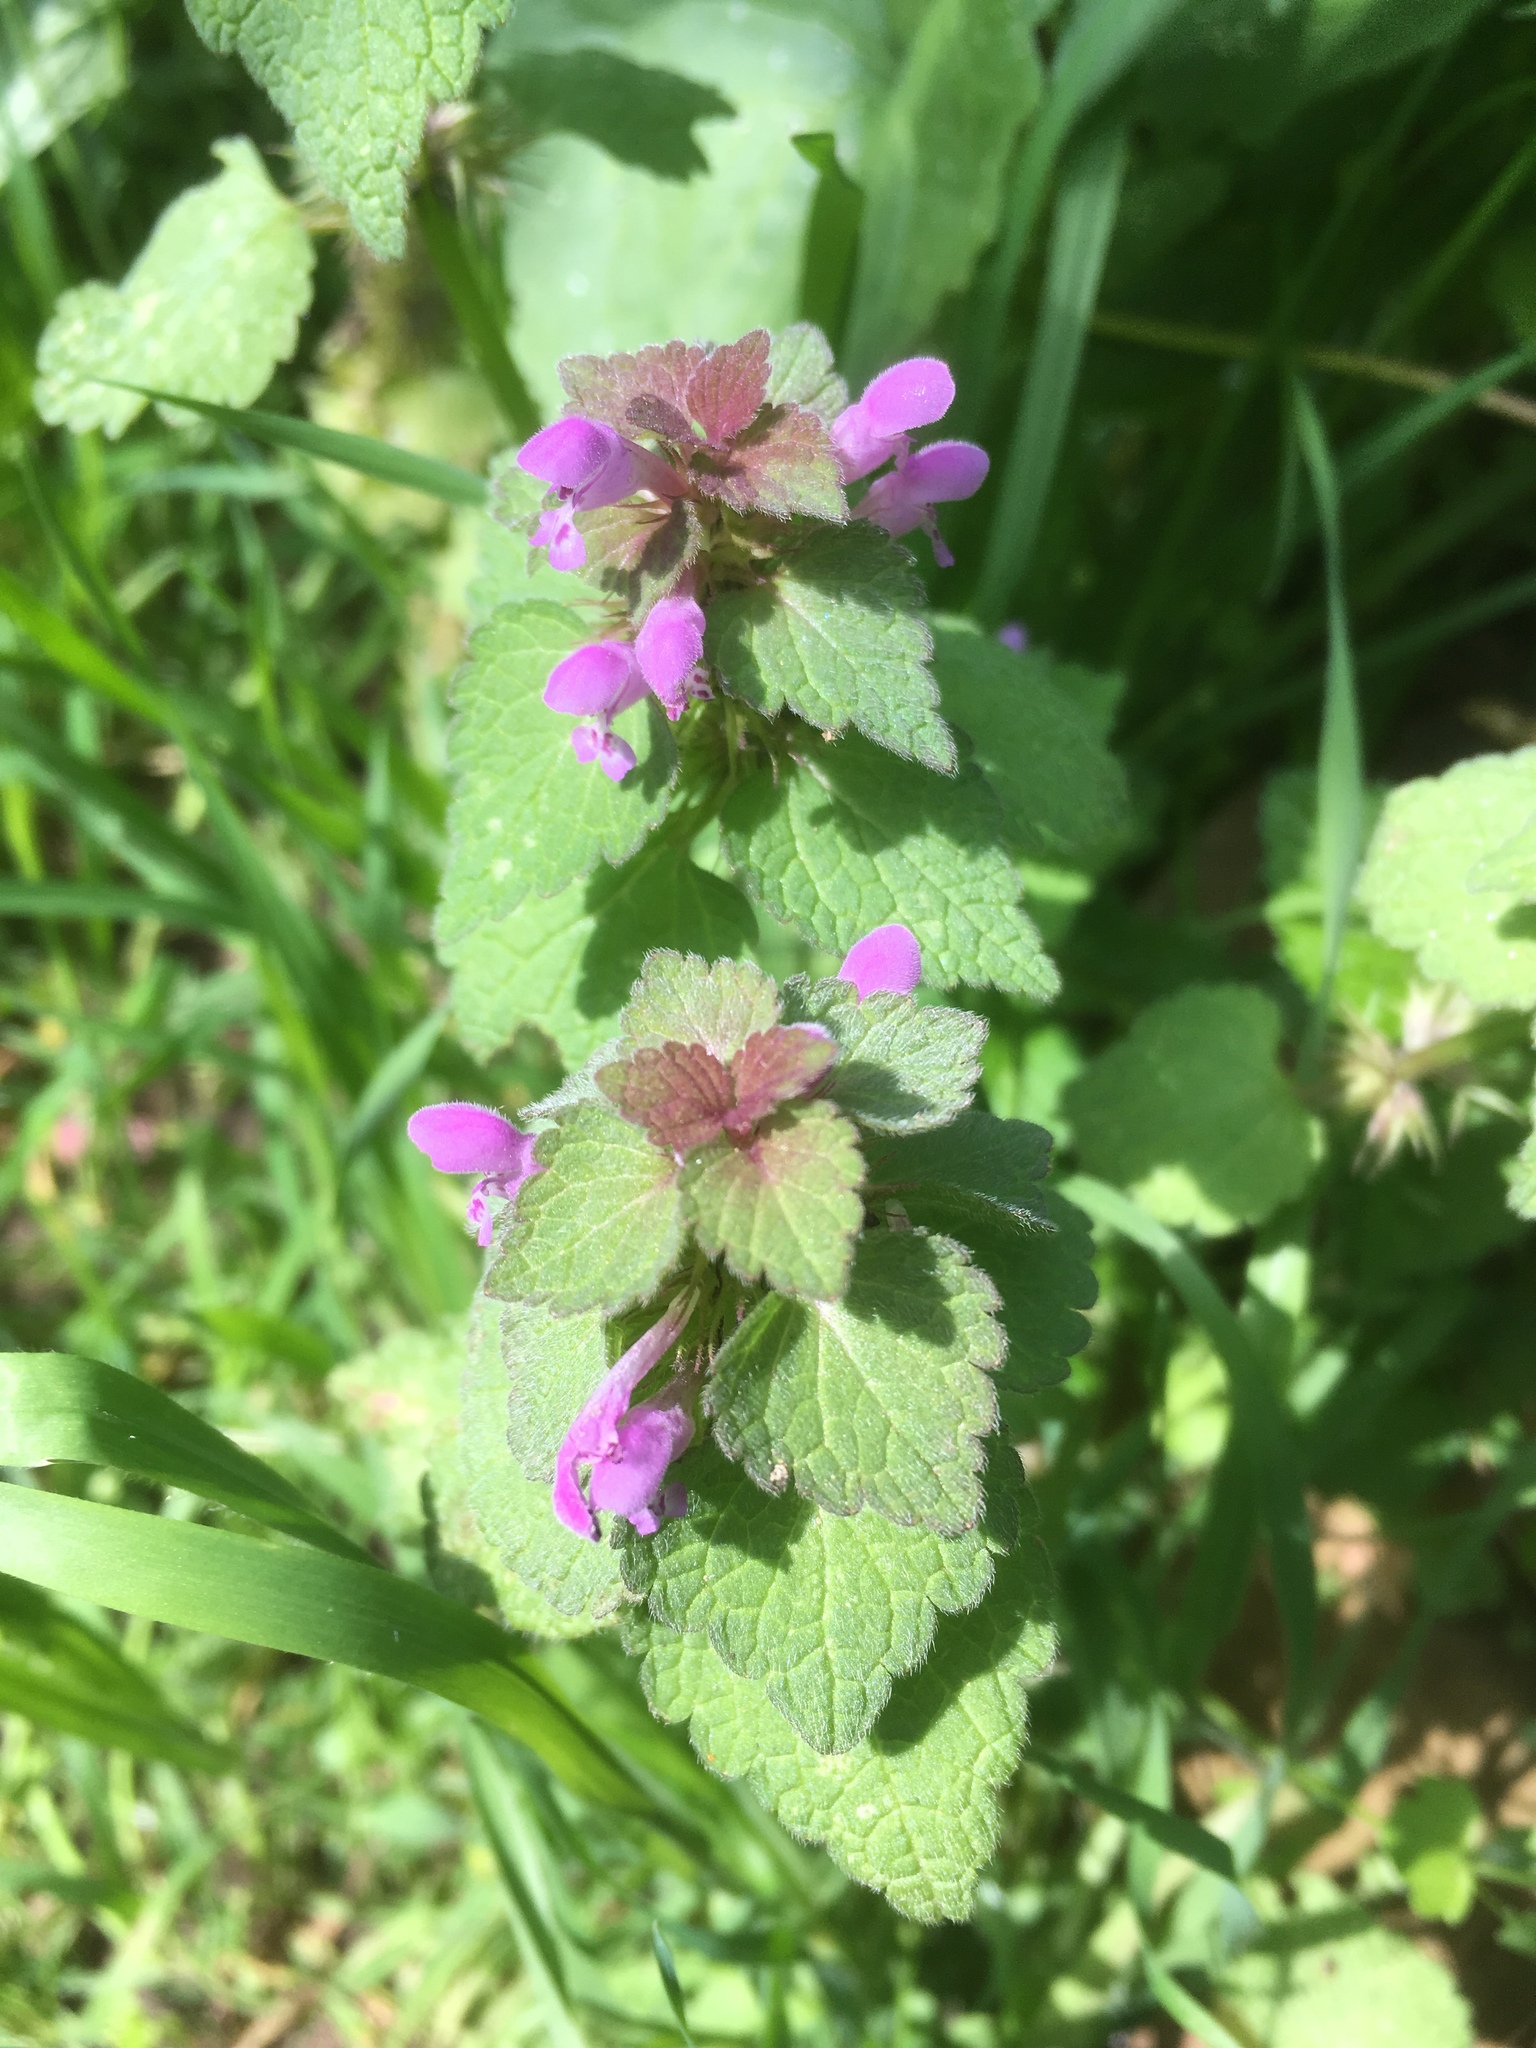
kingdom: Plantae
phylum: Tracheophyta
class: Magnoliopsida
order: Lamiales
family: Lamiaceae
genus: Lamium
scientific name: Lamium purpureum
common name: Red dead-nettle
